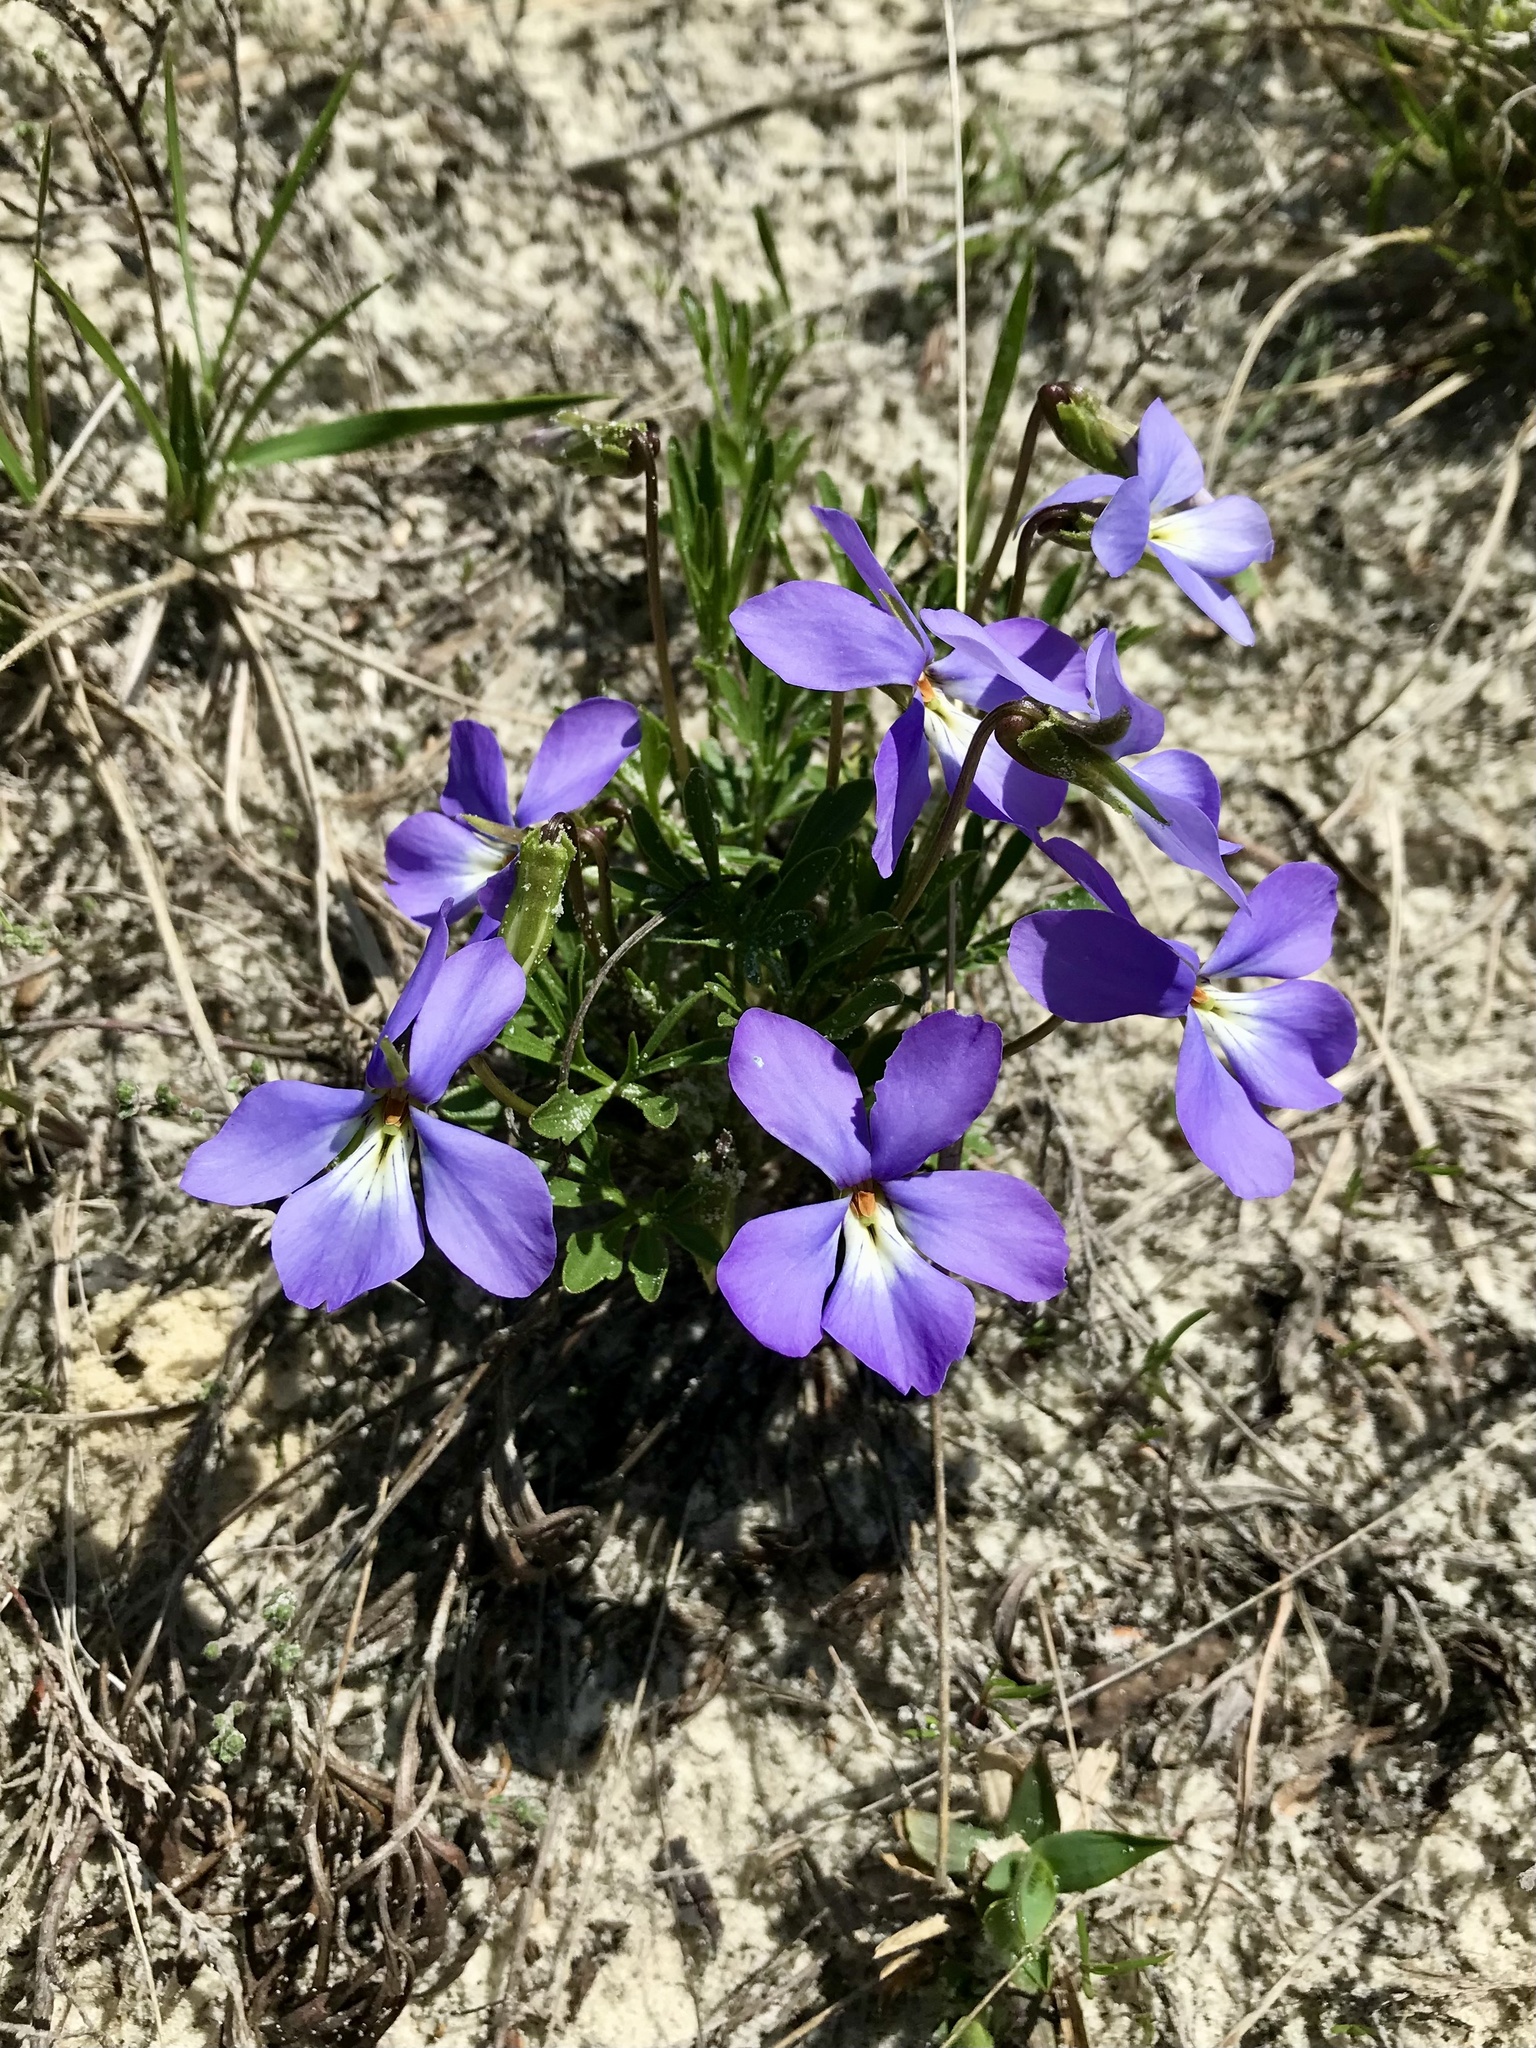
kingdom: Plantae
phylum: Tracheophyta
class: Magnoliopsida
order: Malpighiales
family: Violaceae
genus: Viola
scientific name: Viola pedata
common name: Pansy violet
